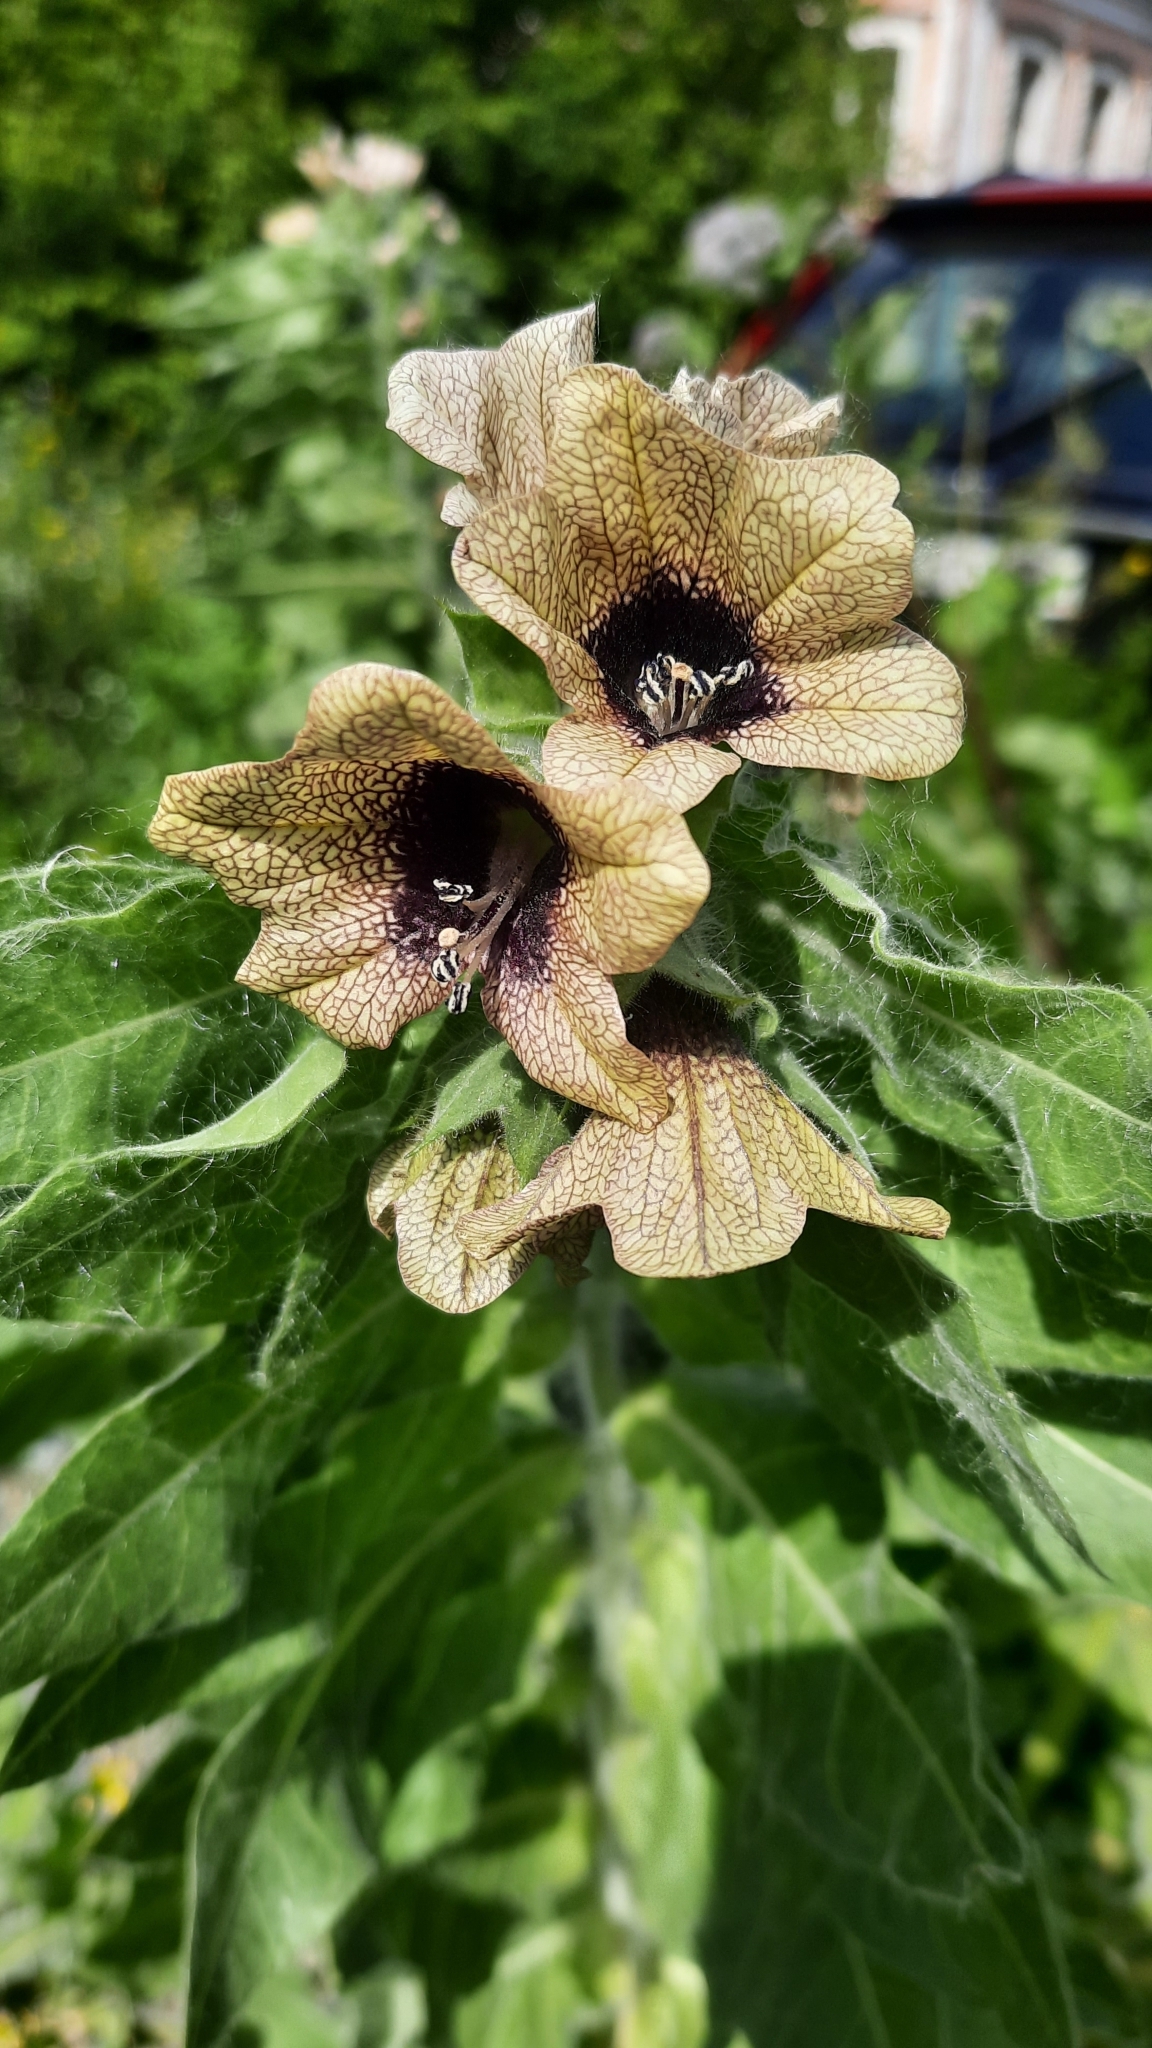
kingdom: Plantae
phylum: Tracheophyta
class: Magnoliopsida
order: Solanales
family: Solanaceae
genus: Hyoscyamus
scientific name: Hyoscyamus niger
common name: Henbane
